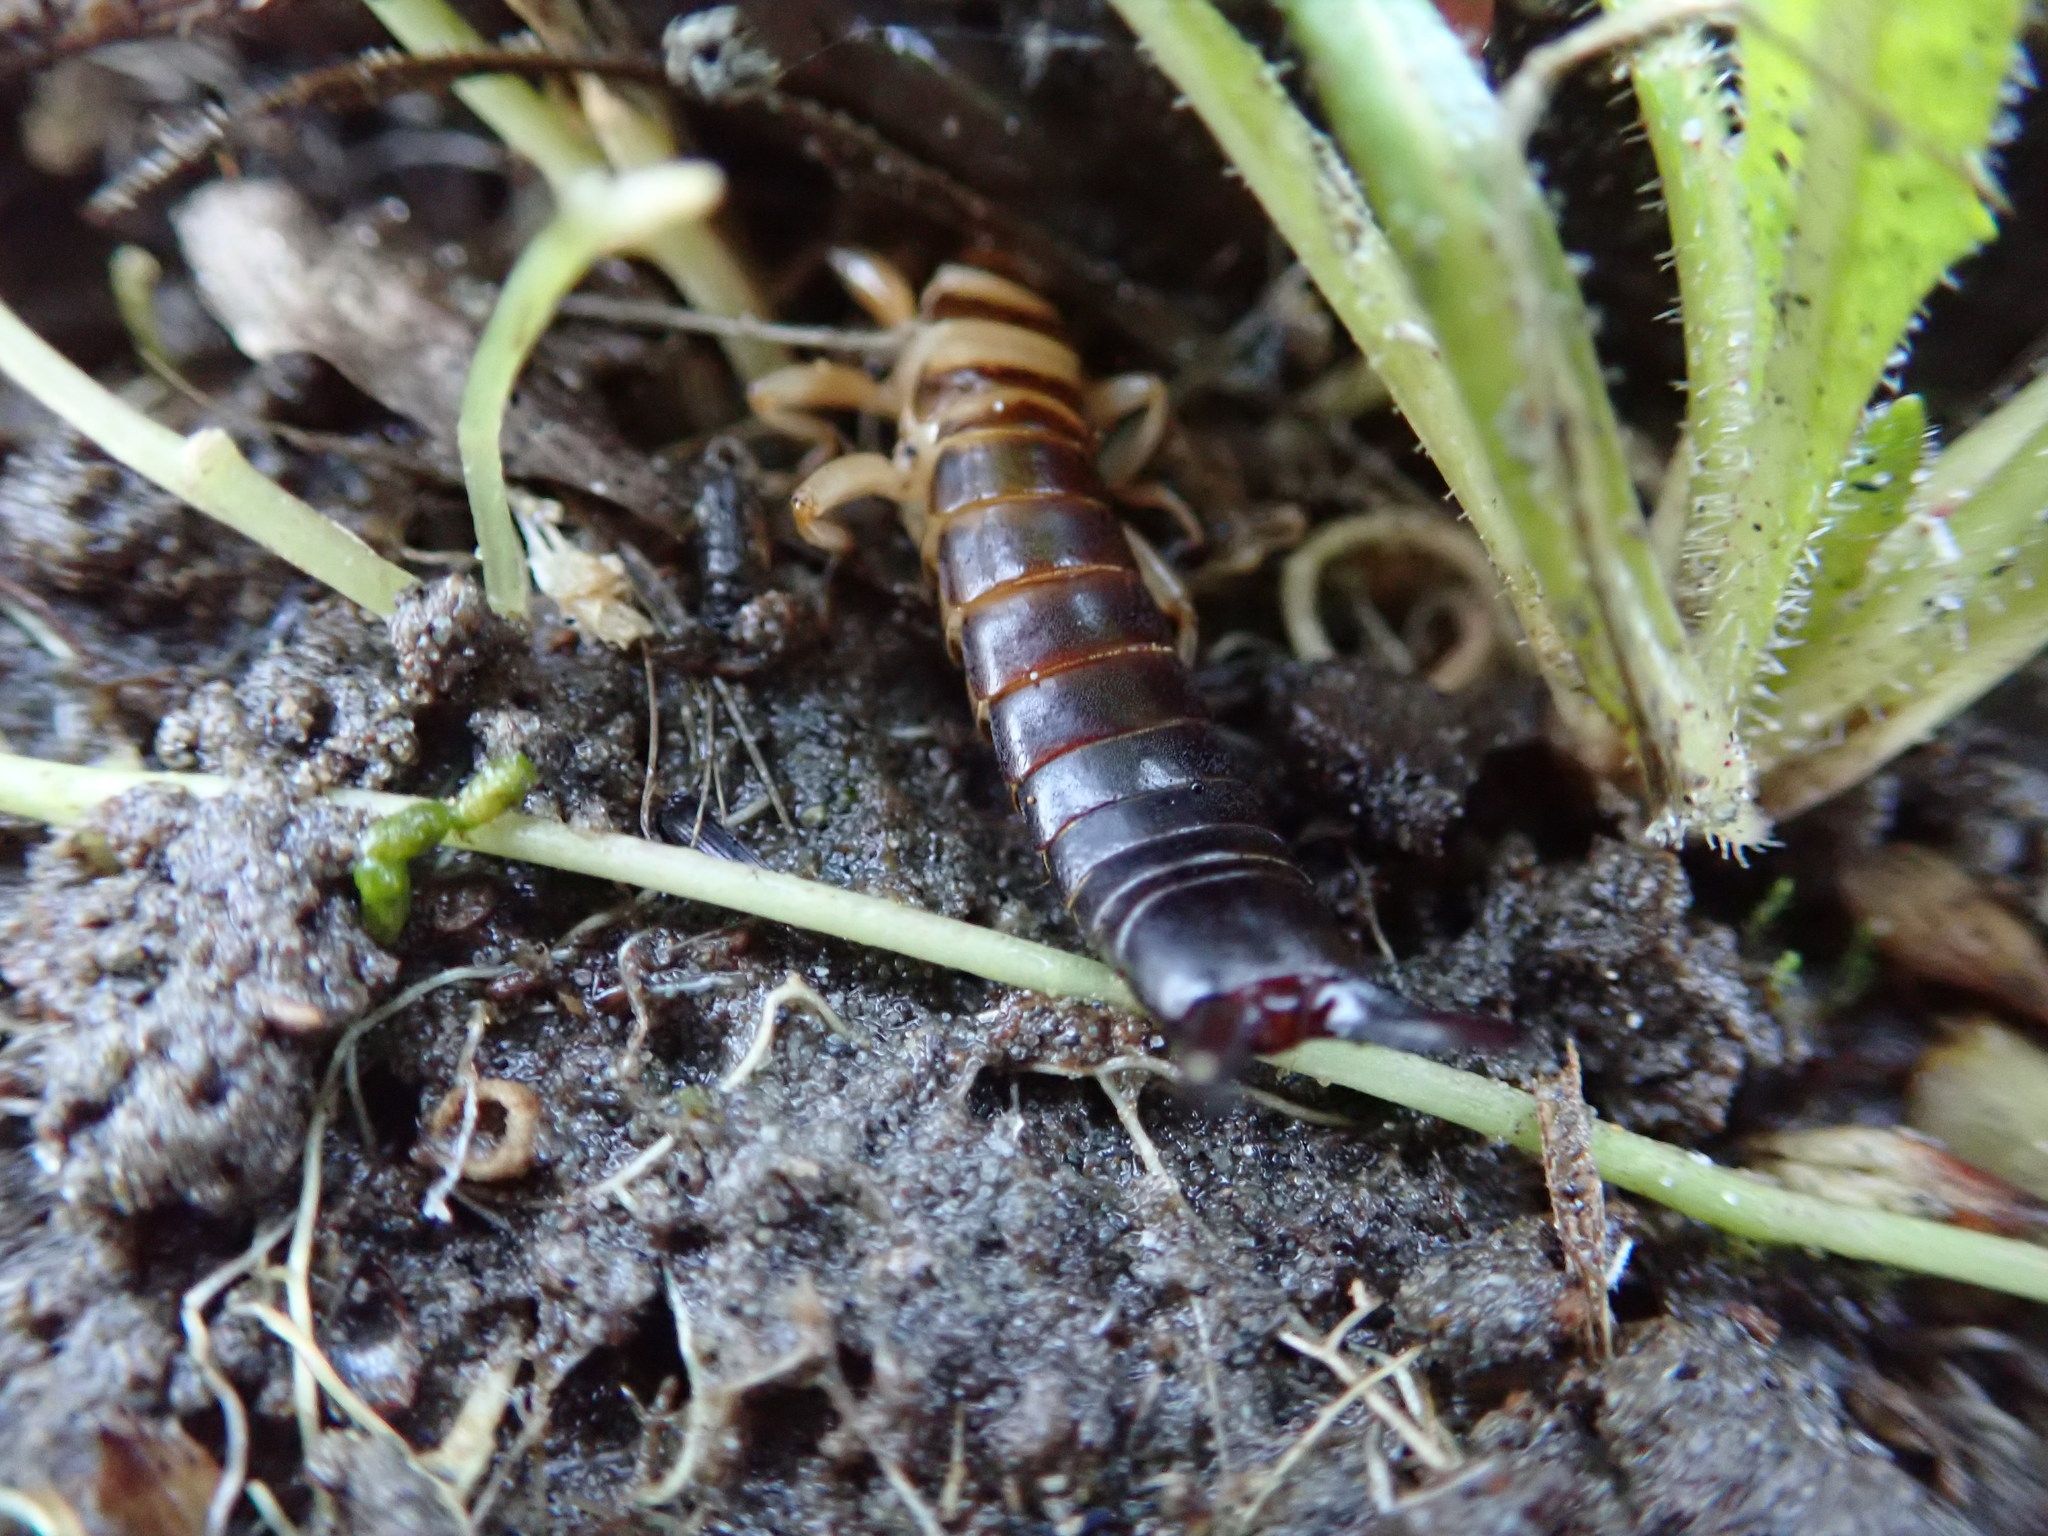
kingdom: Animalia
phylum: Arthropoda
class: Insecta
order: Dermaptera
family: Anisolabididae
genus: Anisolabis
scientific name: Anisolabis littorea
